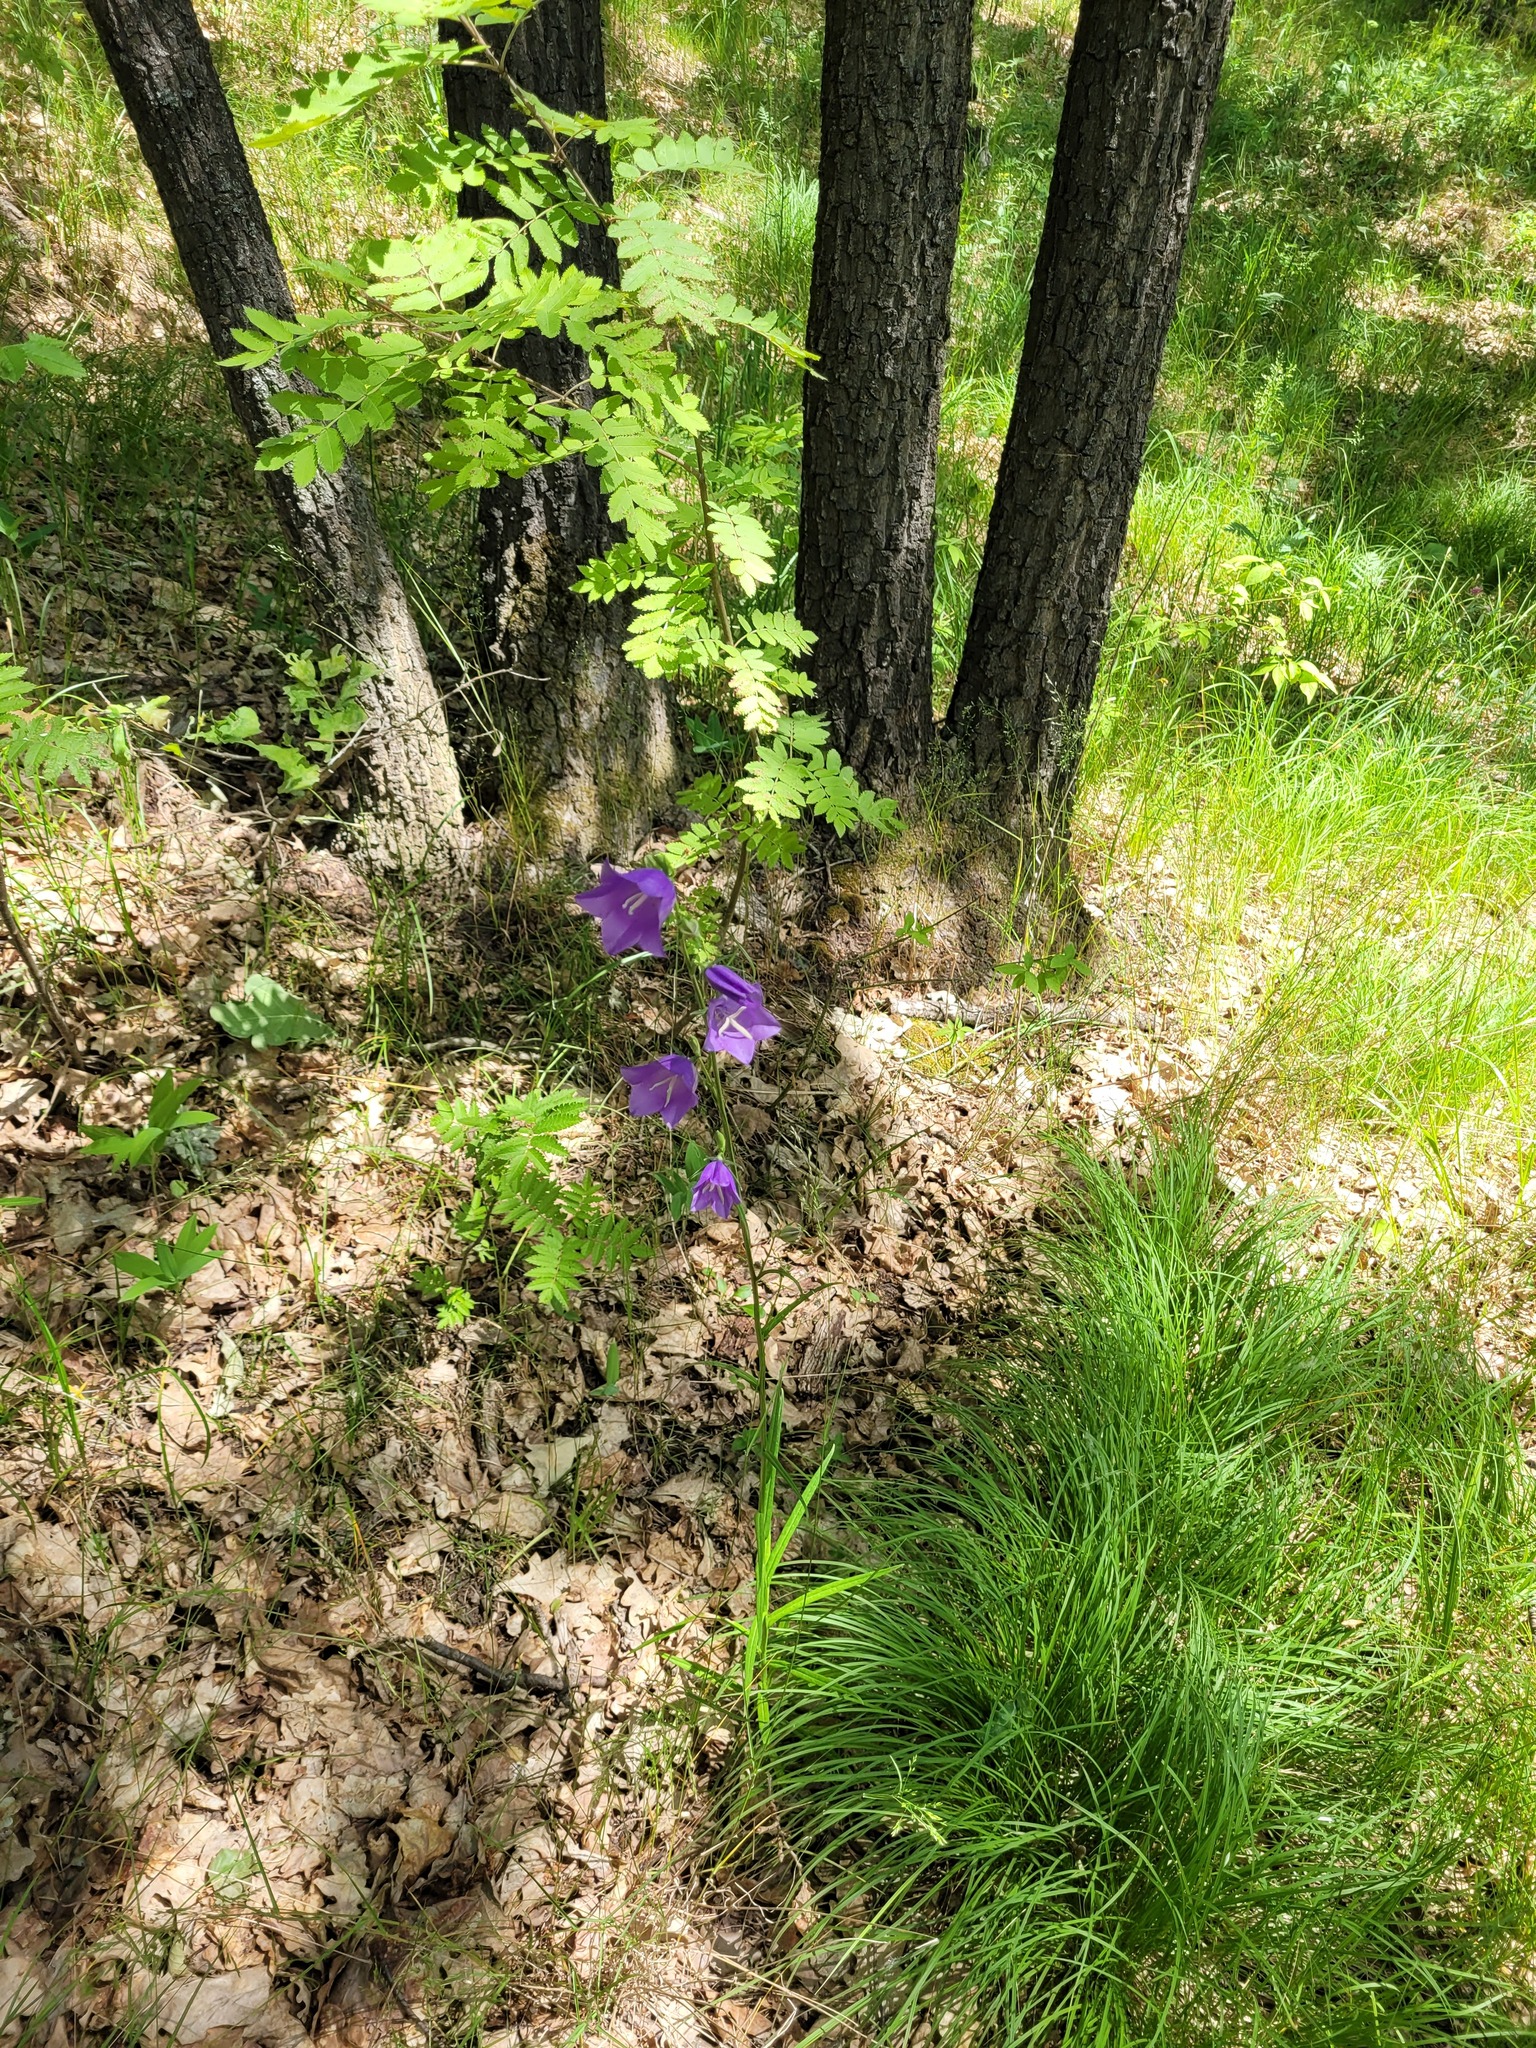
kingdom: Plantae
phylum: Tracheophyta
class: Magnoliopsida
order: Asterales
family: Campanulaceae
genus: Campanula
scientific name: Campanula persicifolia
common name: Peach-leaved bellflower
